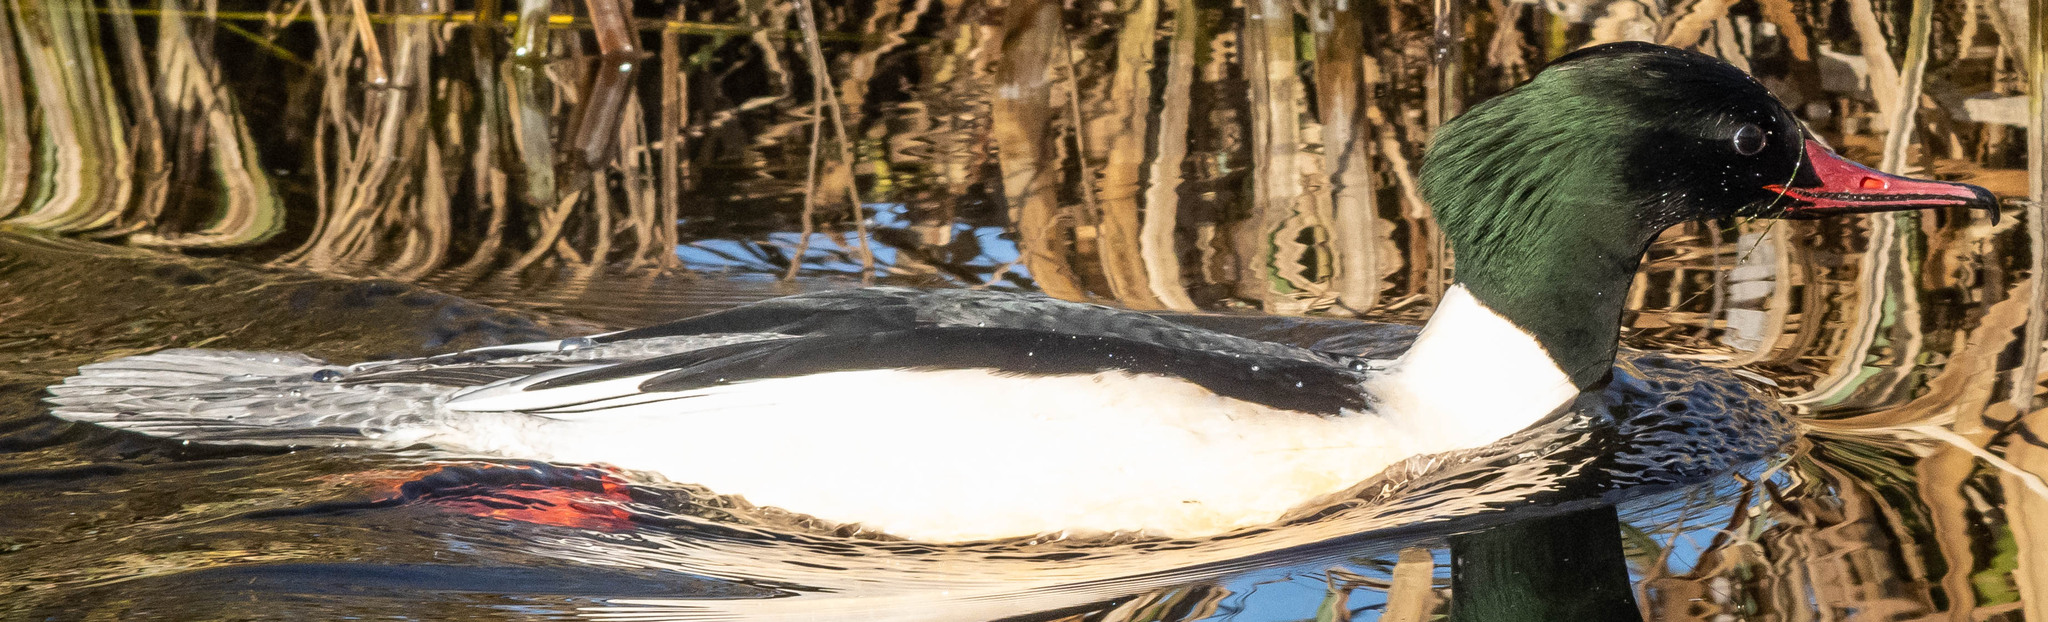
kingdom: Animalia
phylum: Chordata
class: Aves
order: Anseriformes
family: Anatidae
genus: Mergus
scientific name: Mergus serrator
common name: Red-breasted merganser
